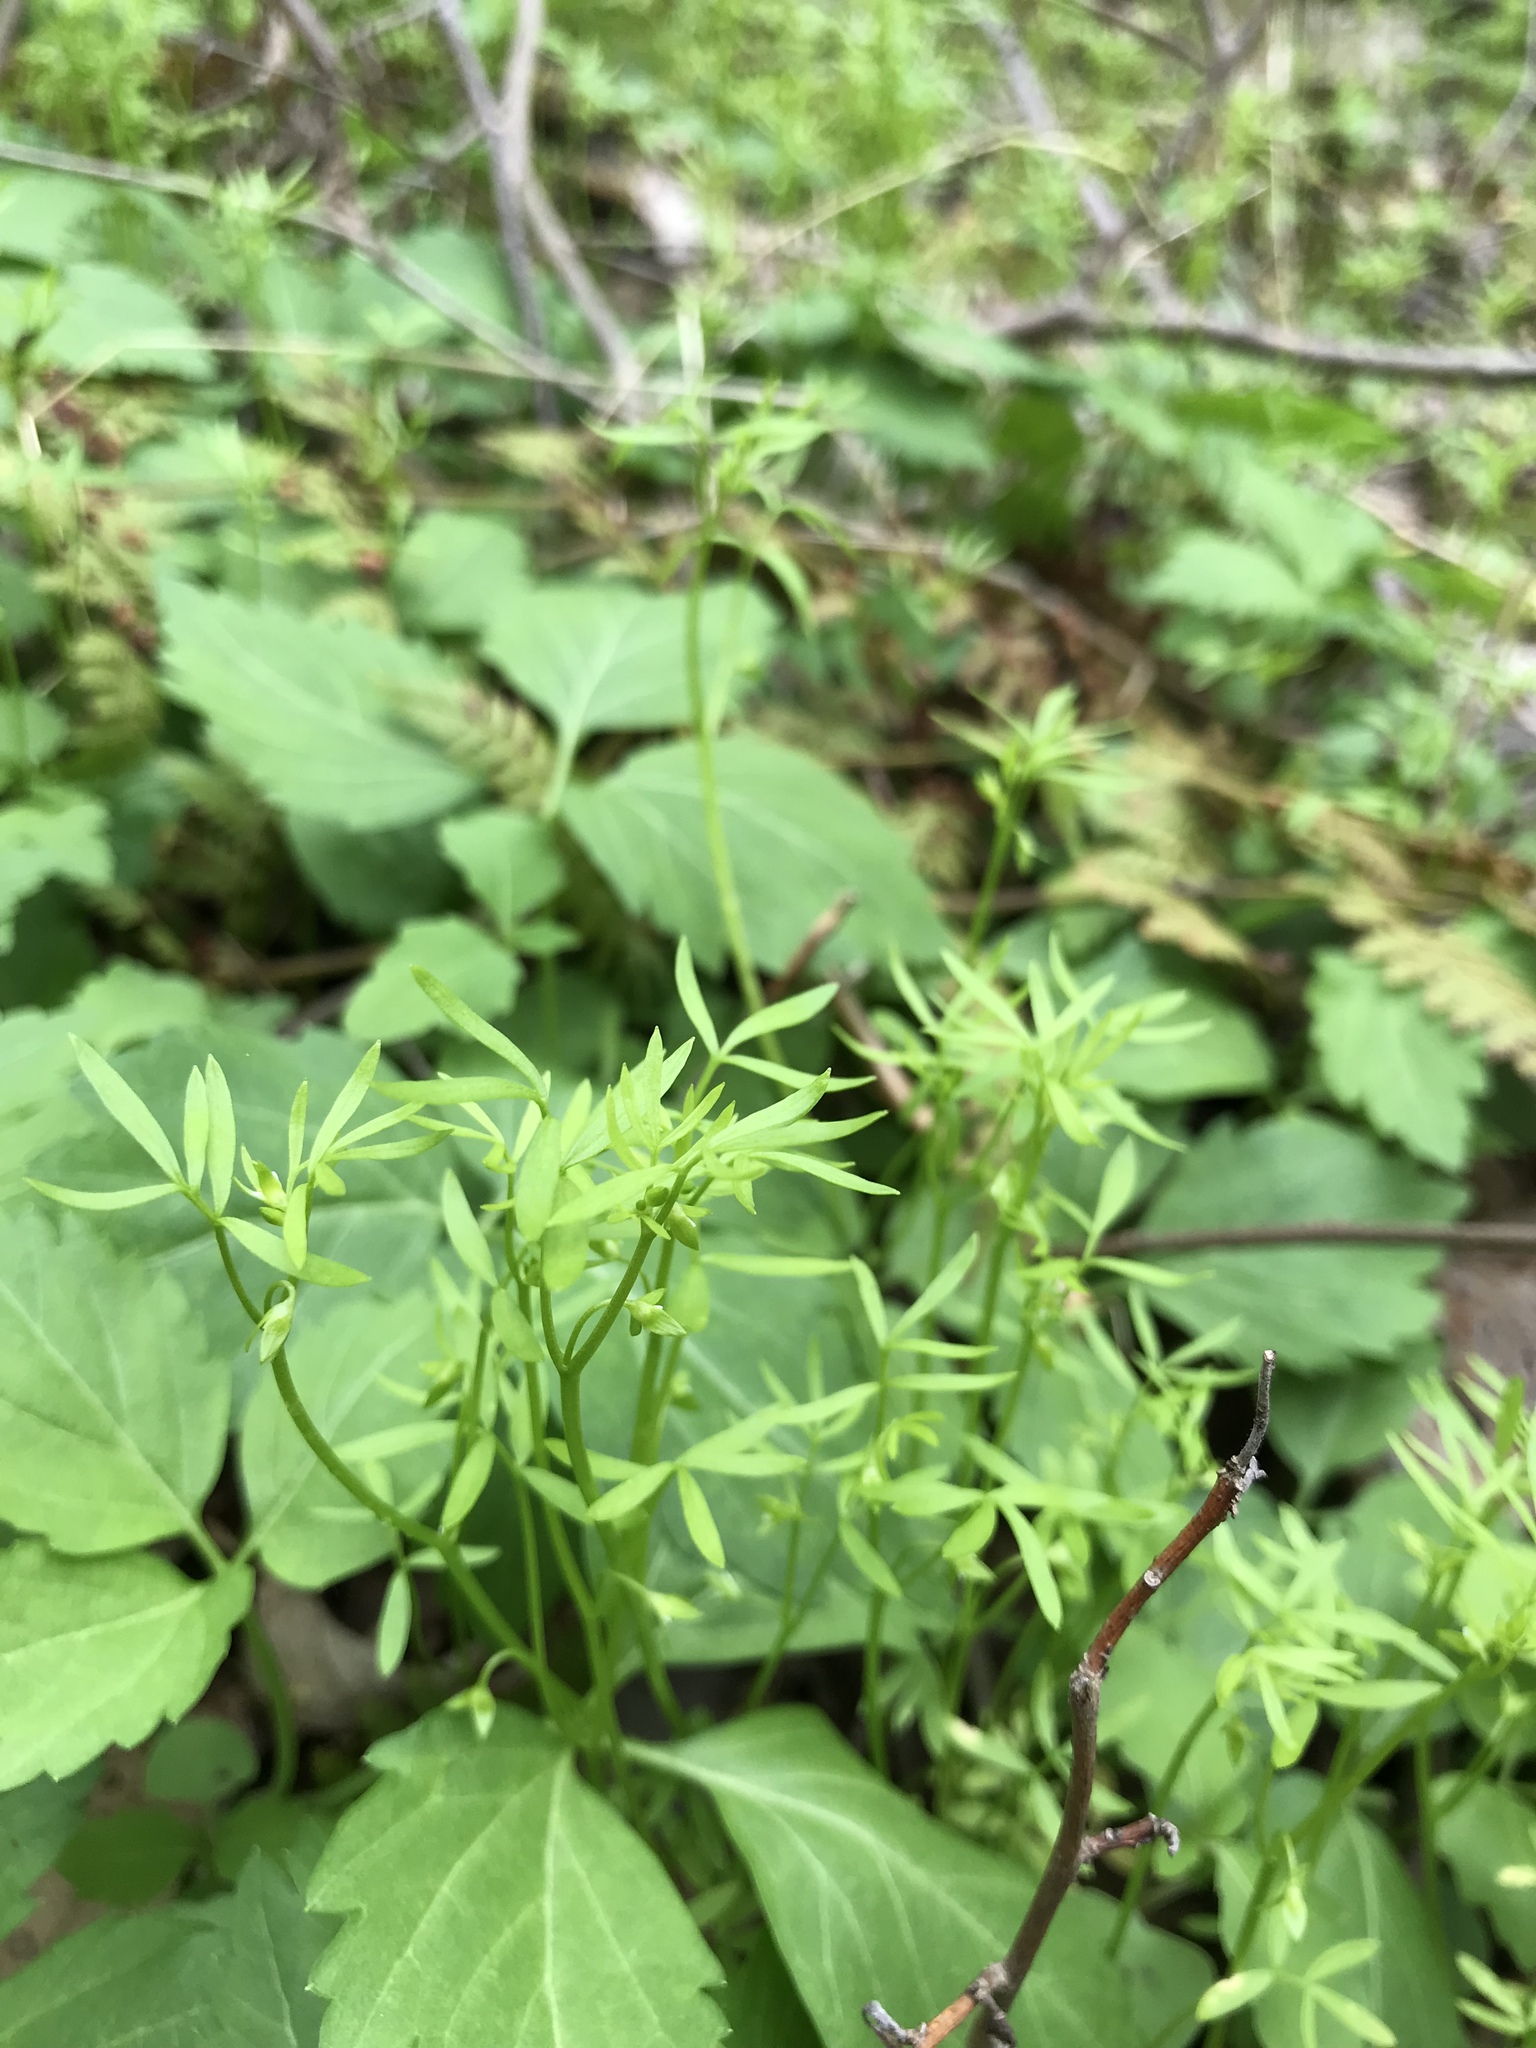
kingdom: Plantae
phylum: Tracheophyta
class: Magnoliopsida
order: Brassicales
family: Limnanthaceae
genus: Floerkea
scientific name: Floerkea proserpinacoides
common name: False mermaid
